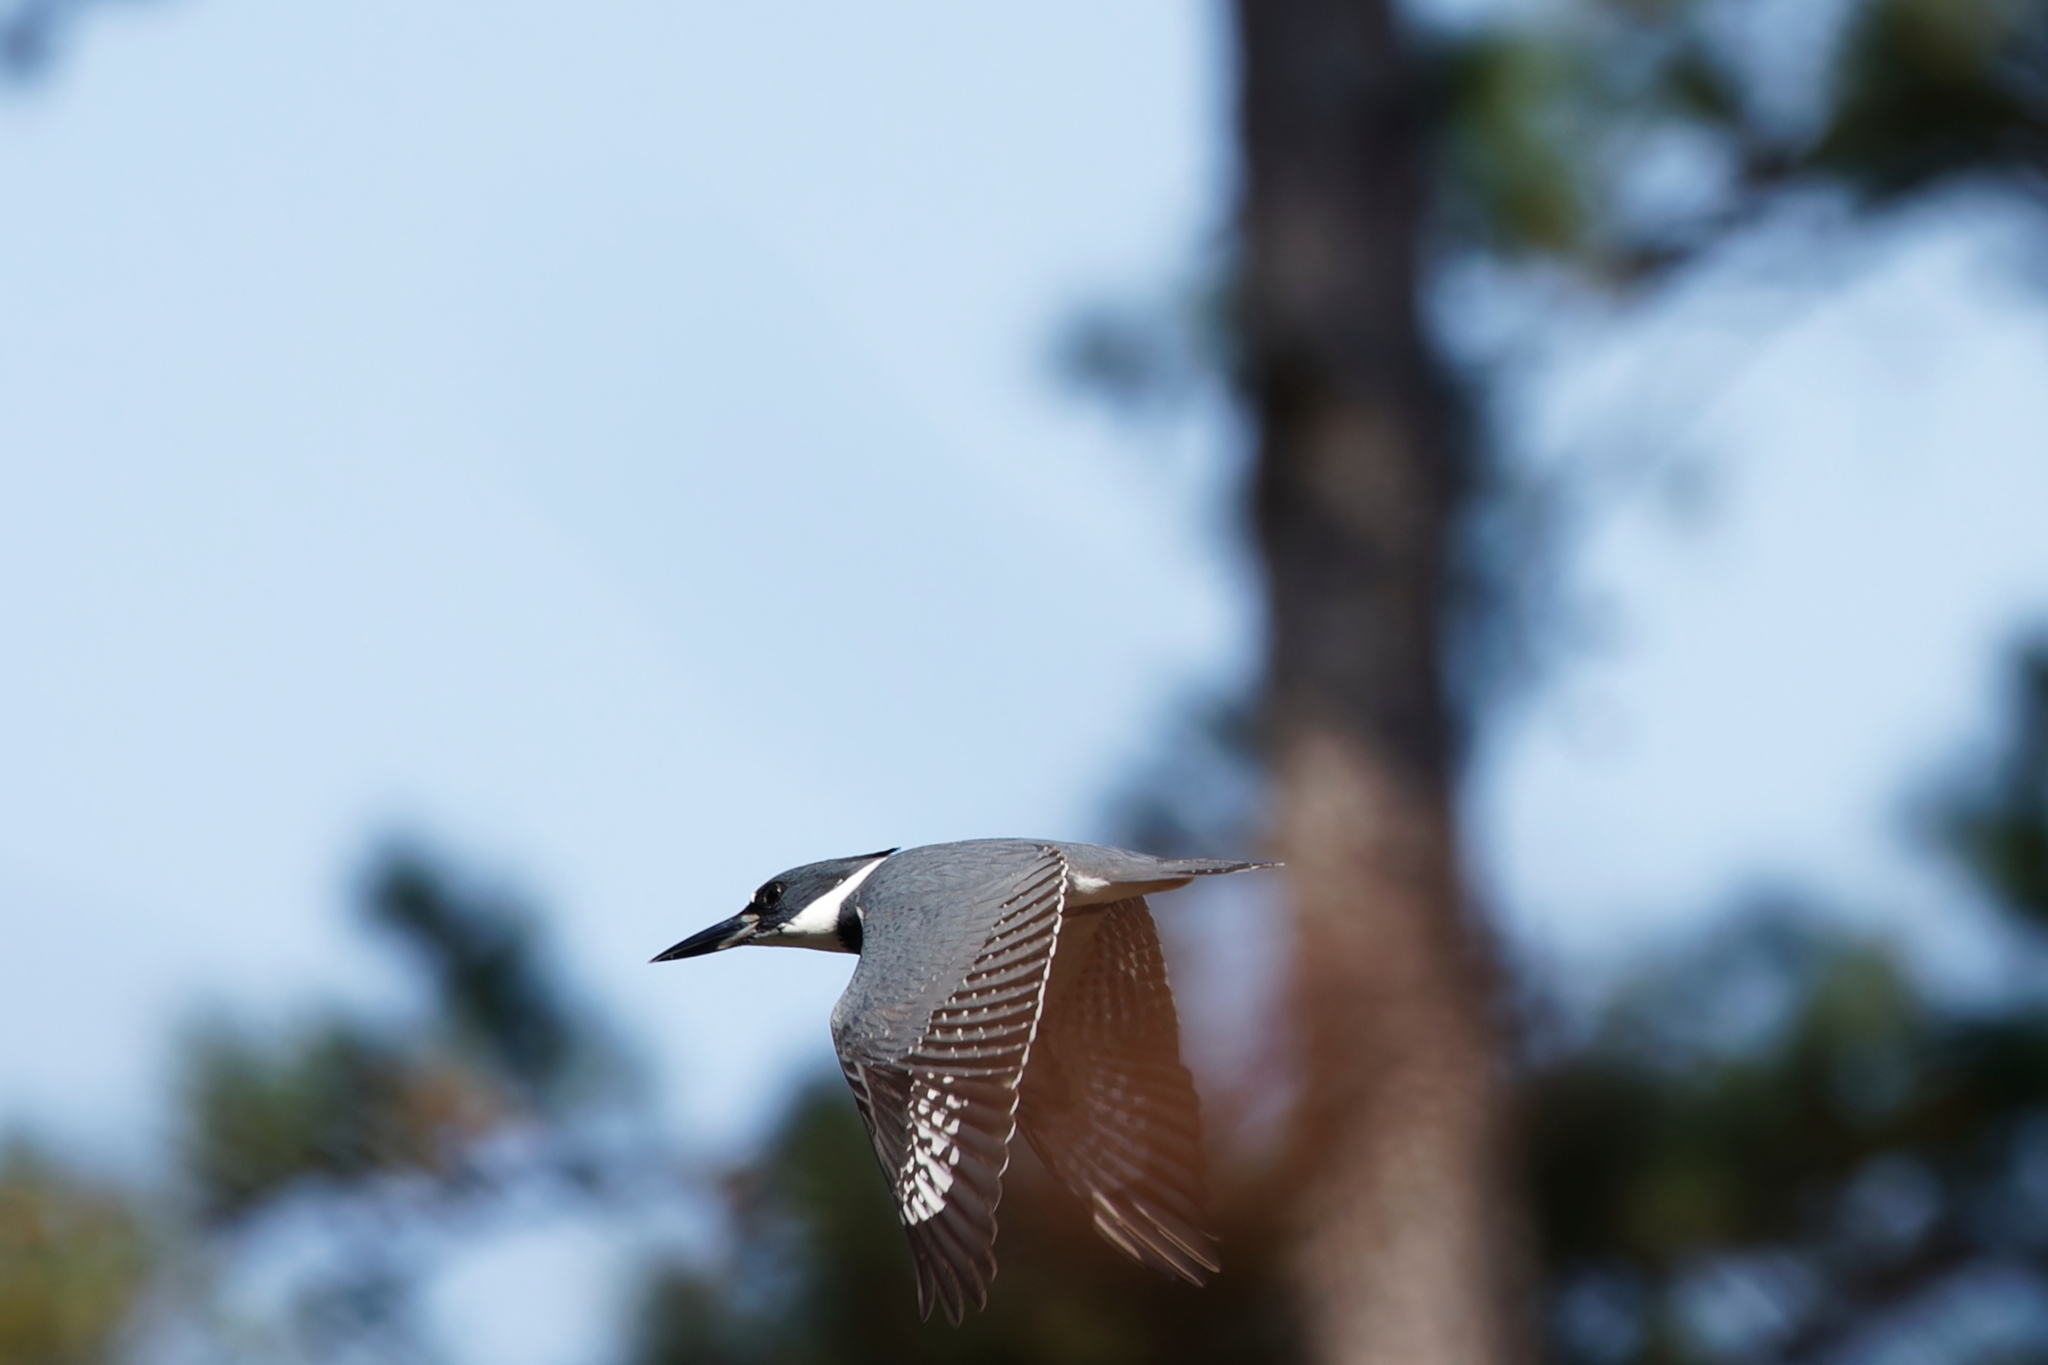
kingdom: Animalia
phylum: Chordata
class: Aves
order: Coraciiformes
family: Alcedinidae
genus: Megaceryle
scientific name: Megaceryle alcyon
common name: Belted kingfisher
